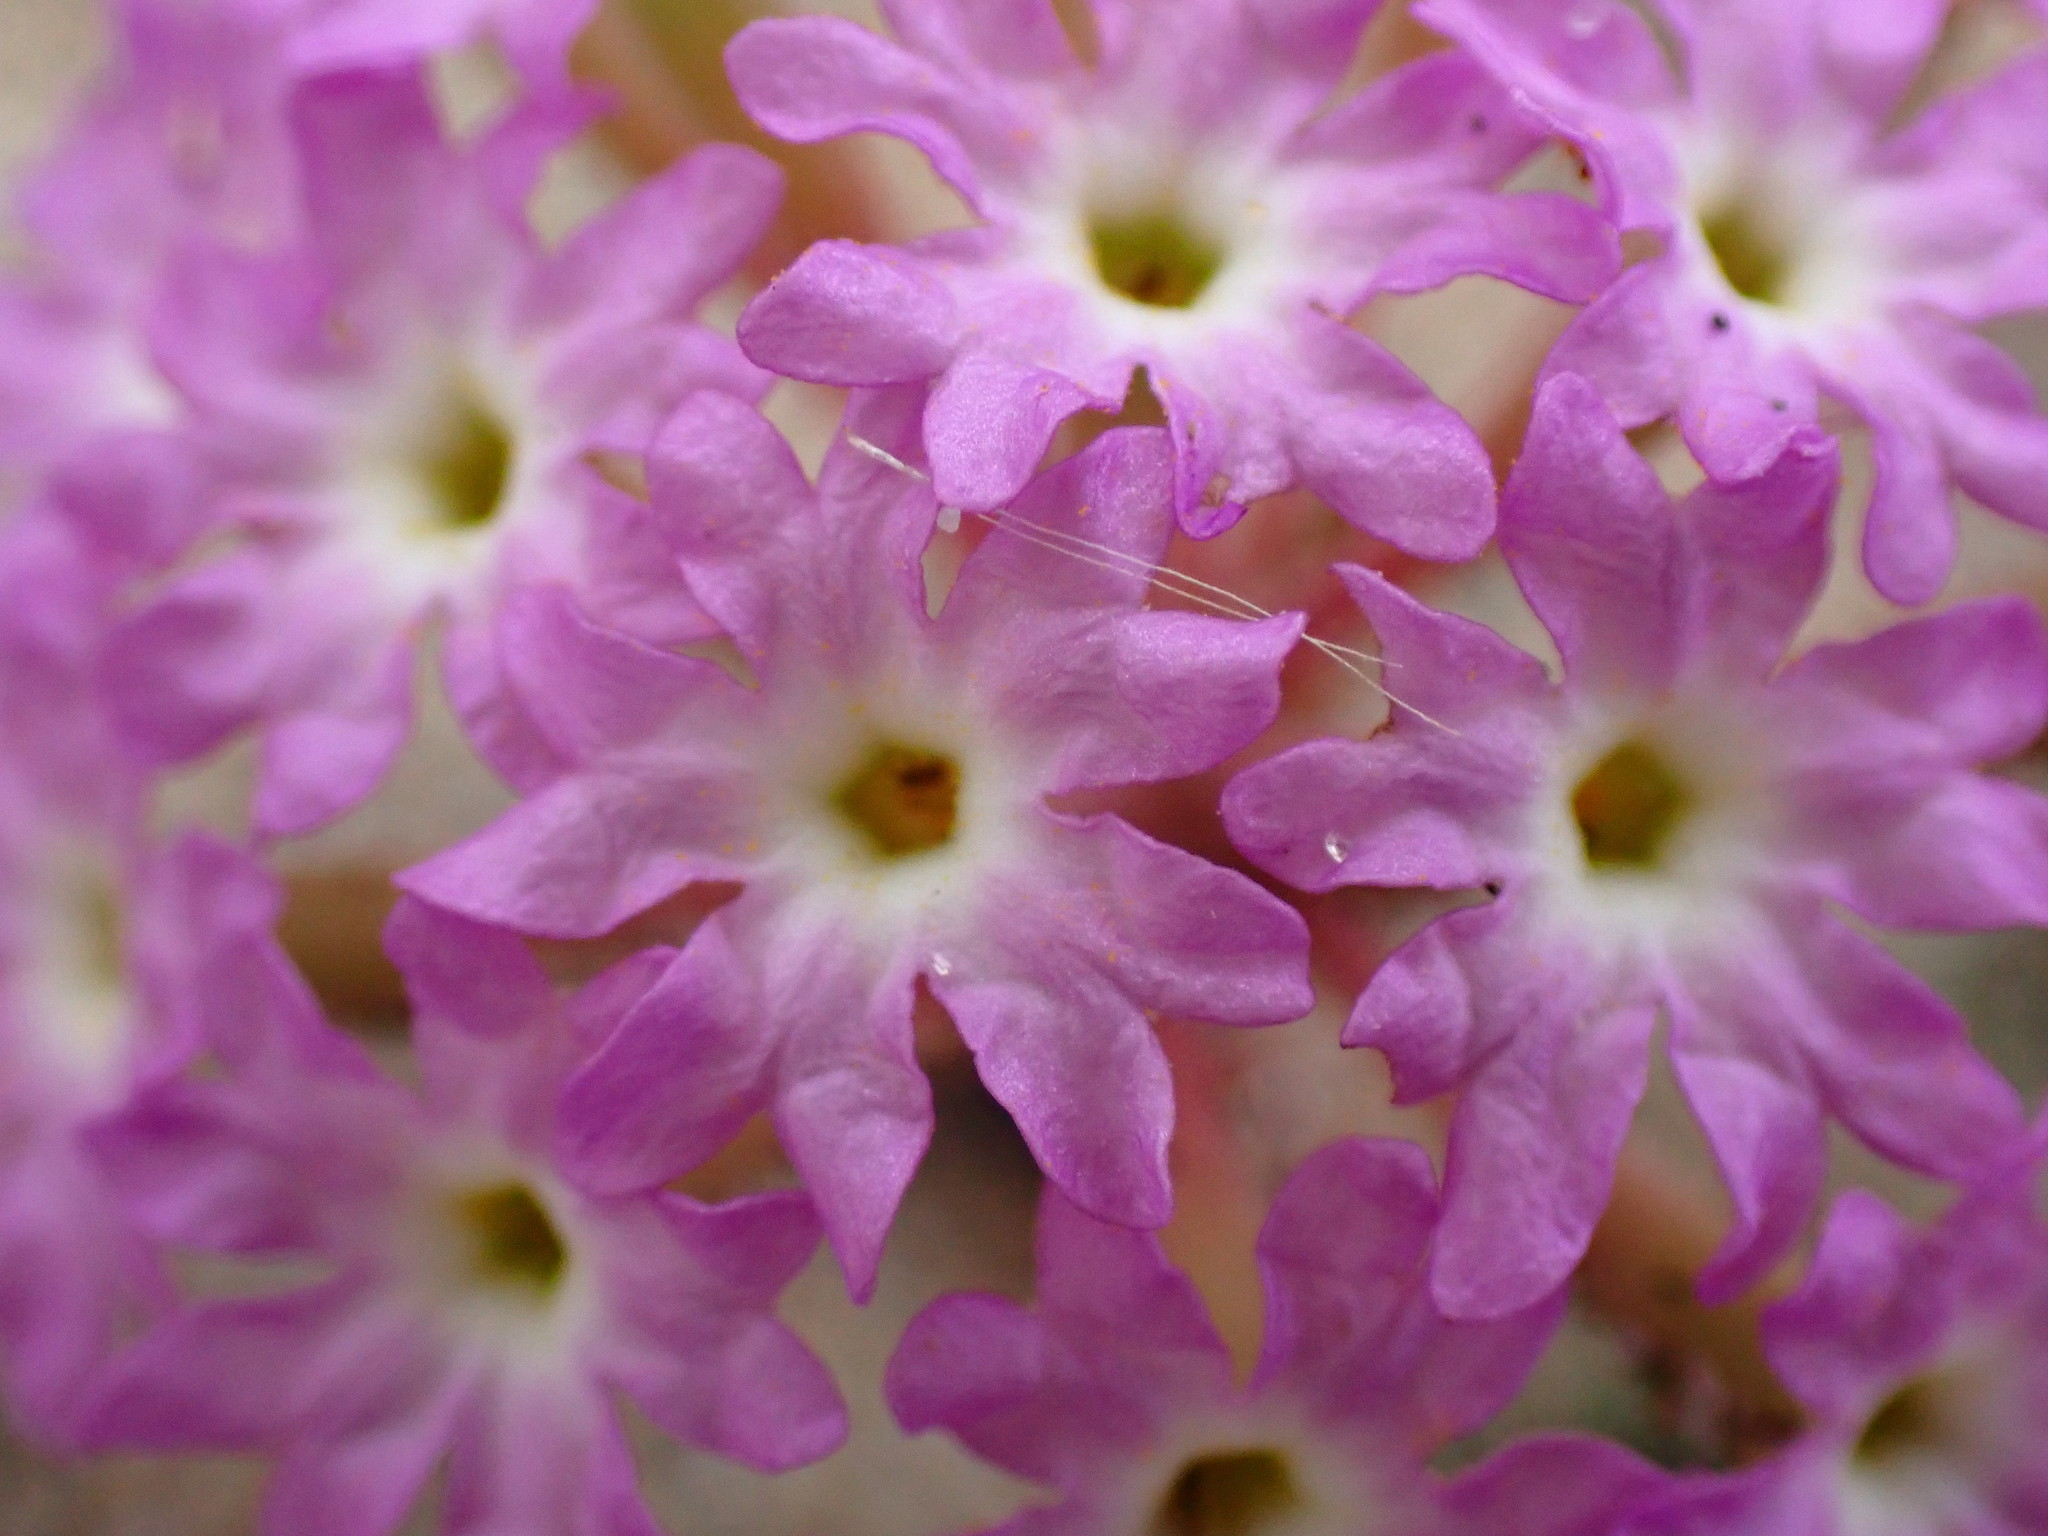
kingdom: Plantae
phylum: Tracheophyta
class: Magnoliopsida
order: Caryophyllales
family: Nyctaginaceae
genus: Abronia
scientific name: Abronia umbellata
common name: Sand-verbena
